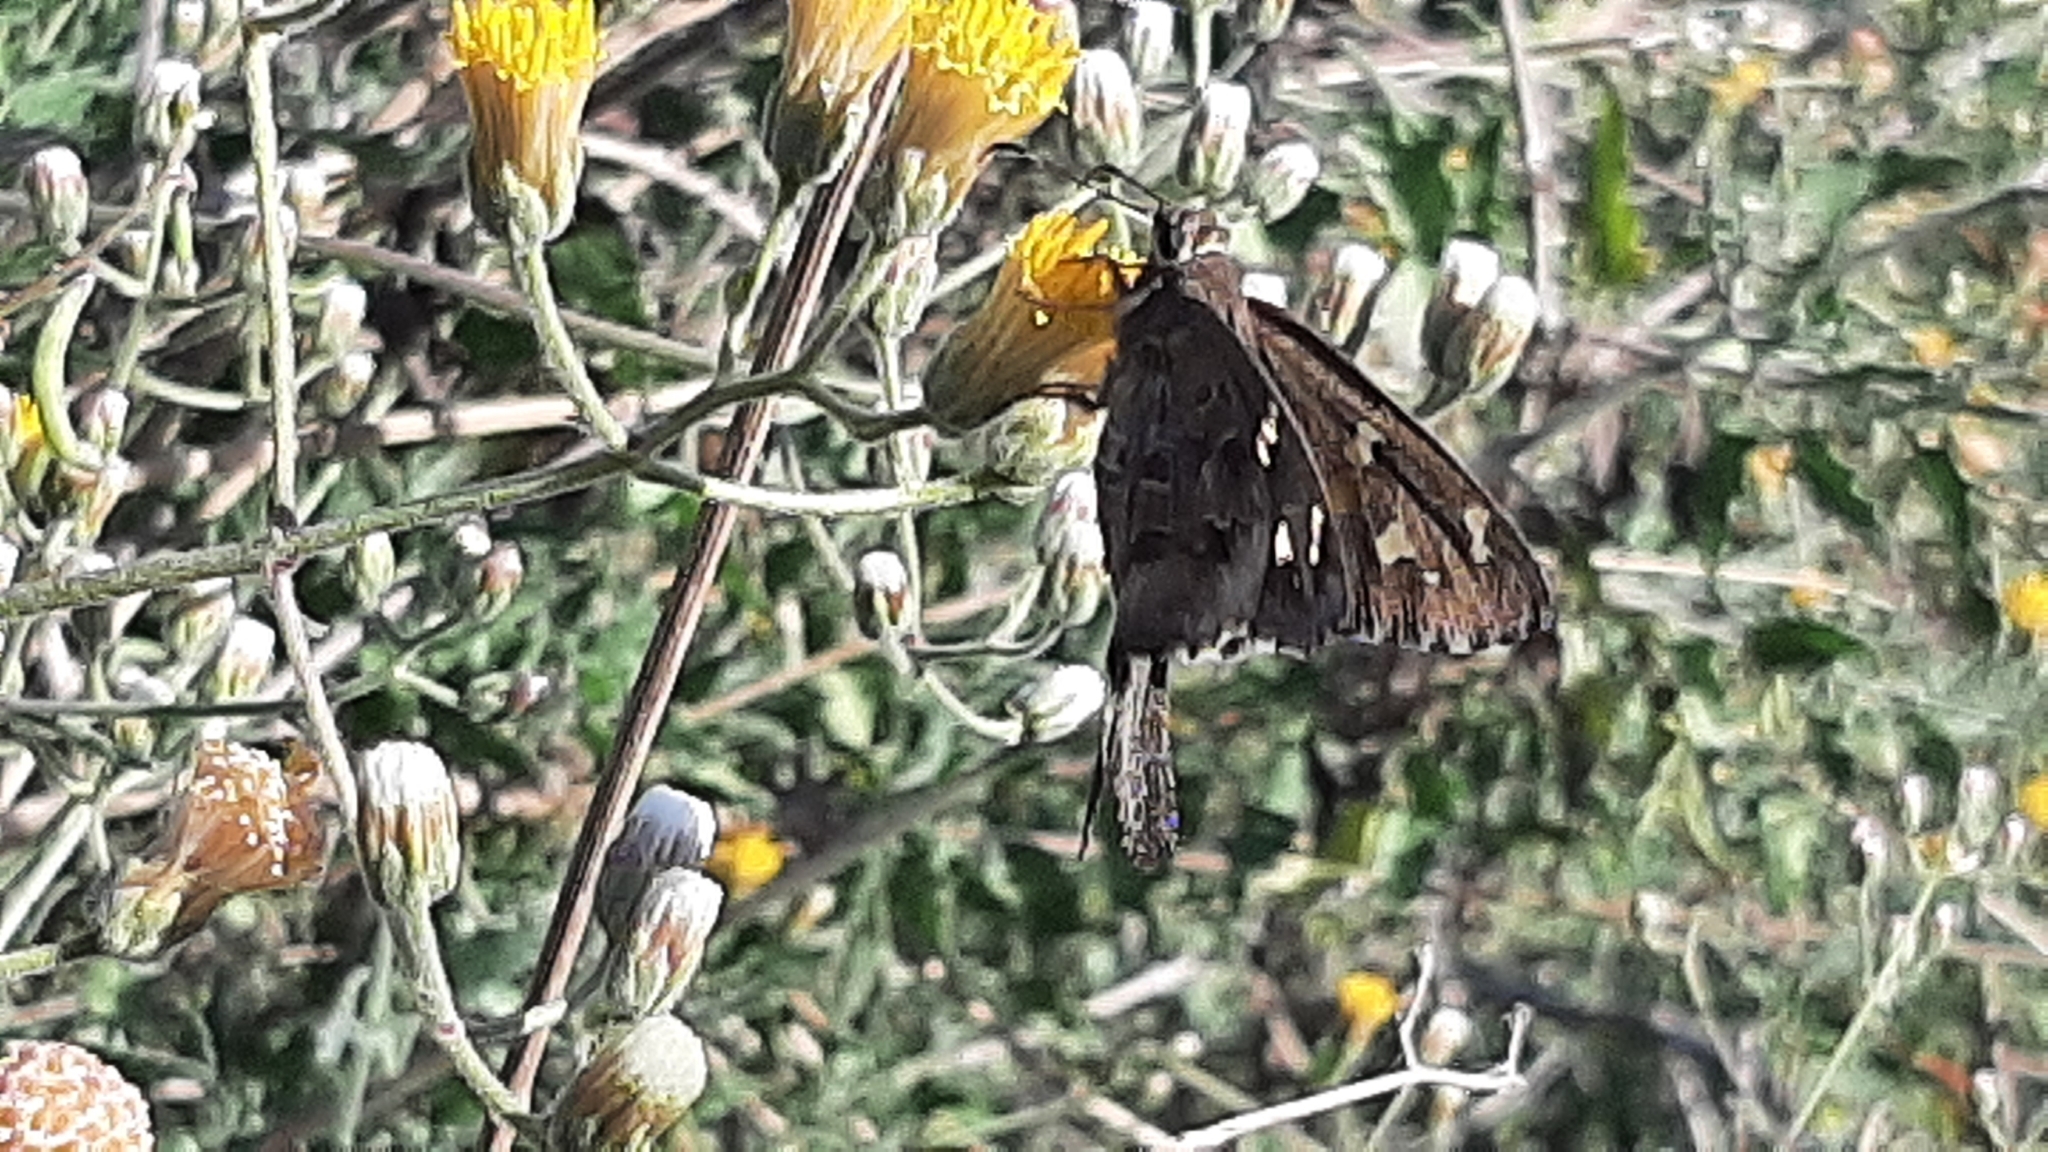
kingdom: Animalia
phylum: Arthropoda
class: Insecta
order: Lepidoptera
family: Hesperiidae
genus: Thorybes
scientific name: Thorybes
